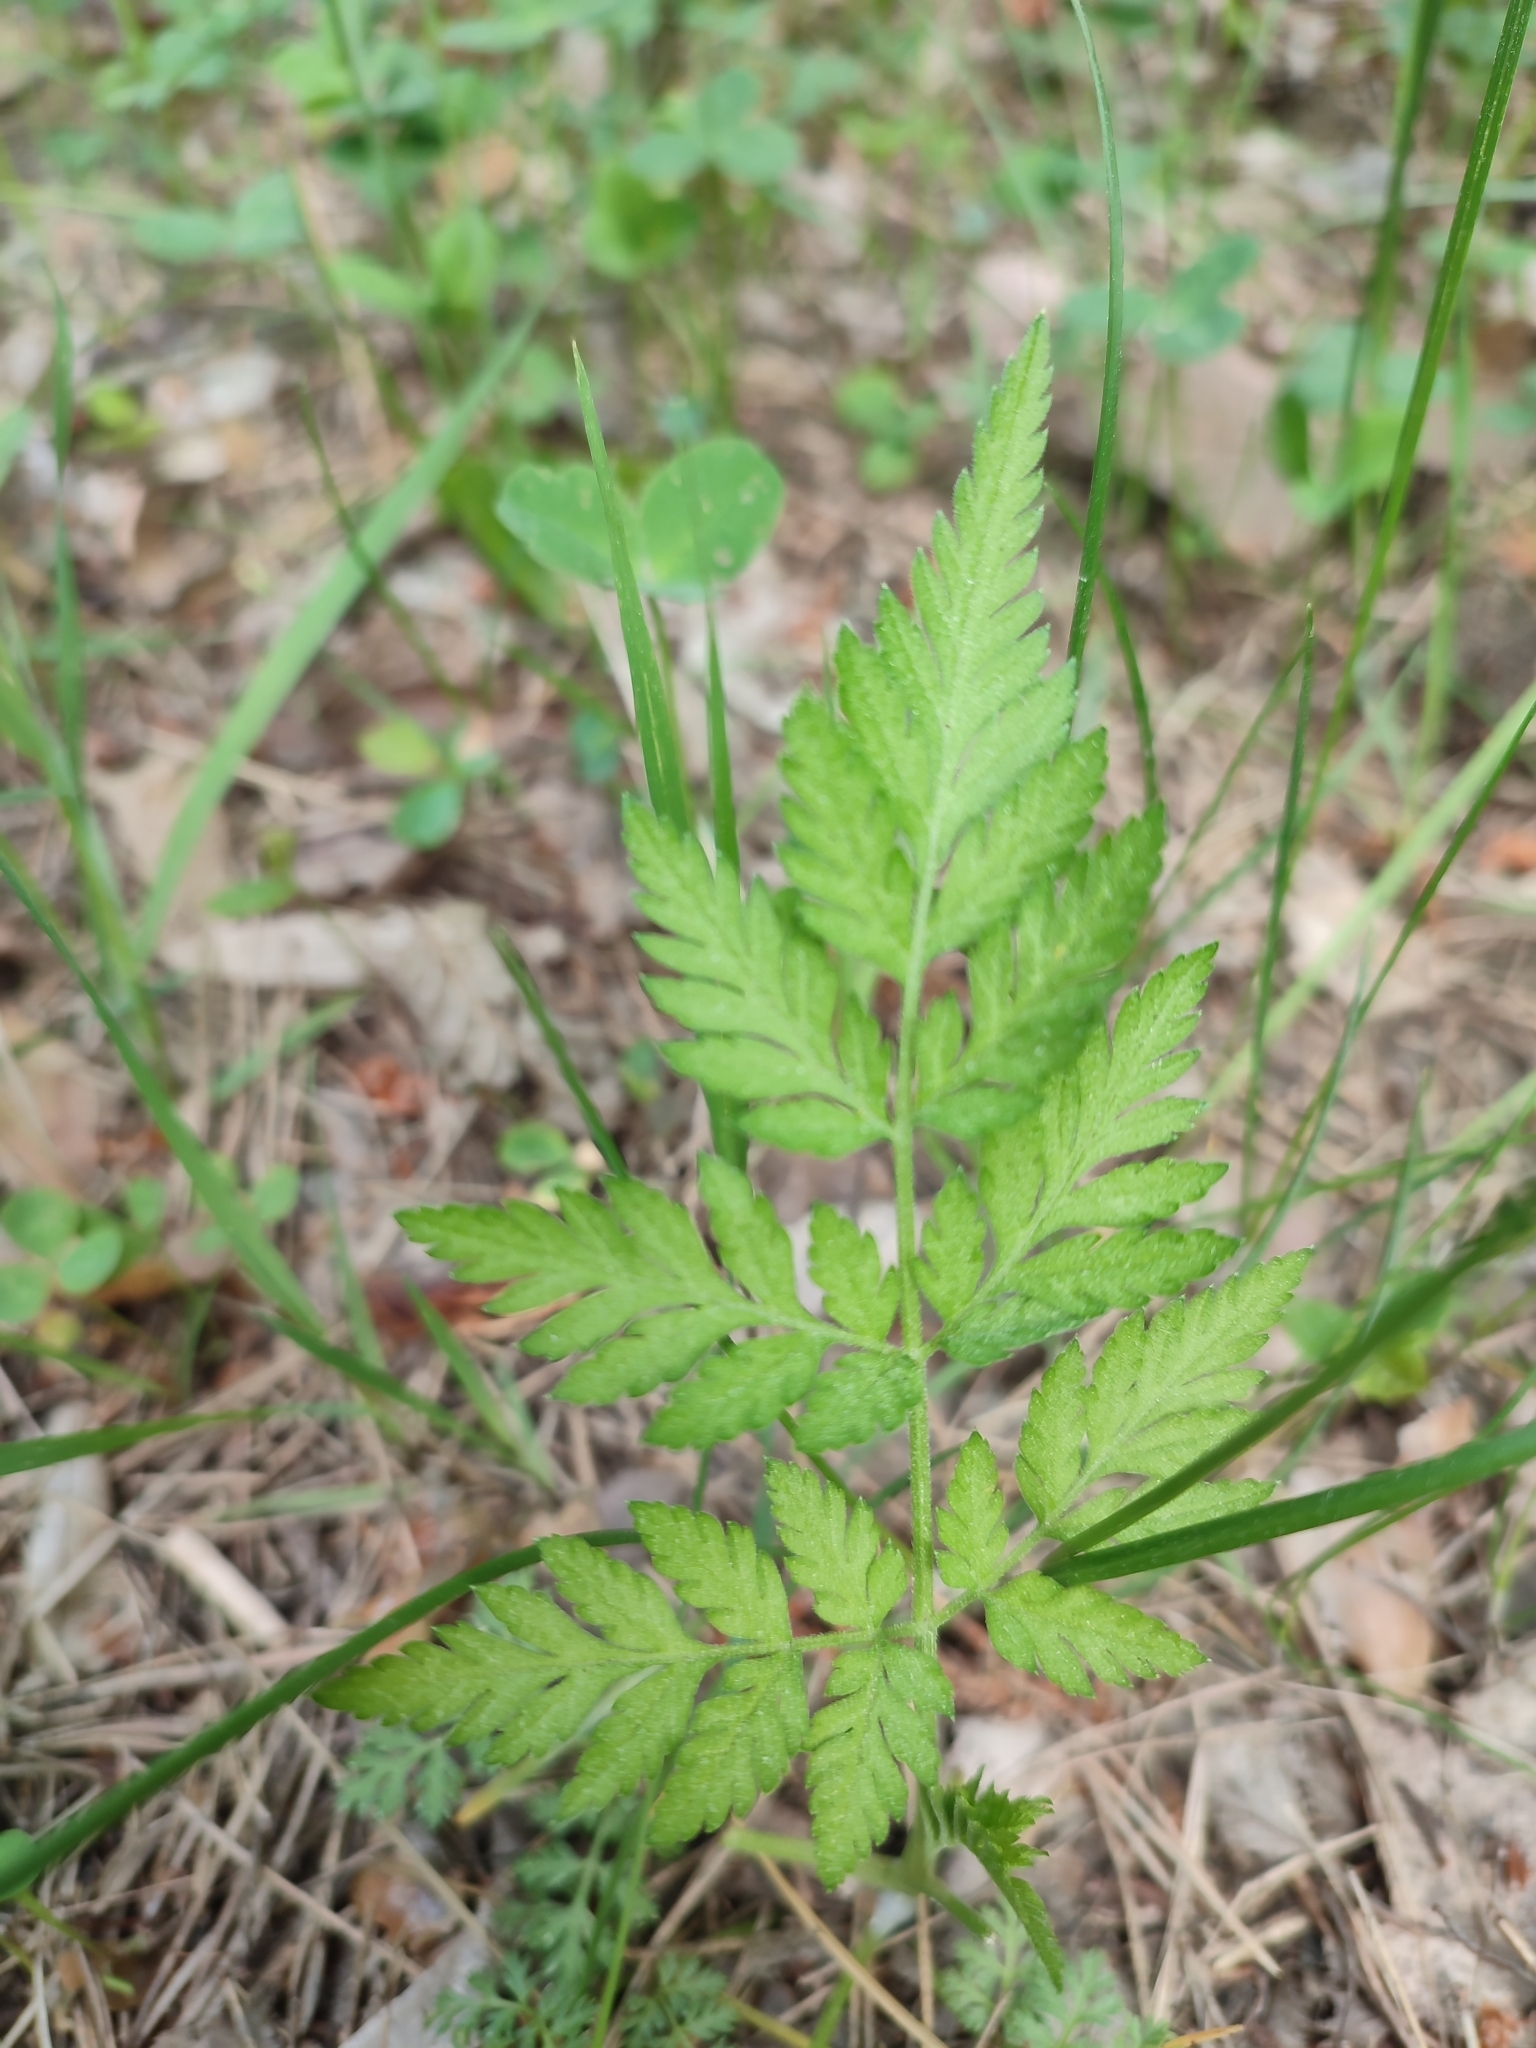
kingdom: Plantae
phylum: Tracheophyta
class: Magnoliopsida
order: Apiales
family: Apiaceae
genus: Torilis
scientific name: Torilis japonica
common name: Upright hedge-parsley
